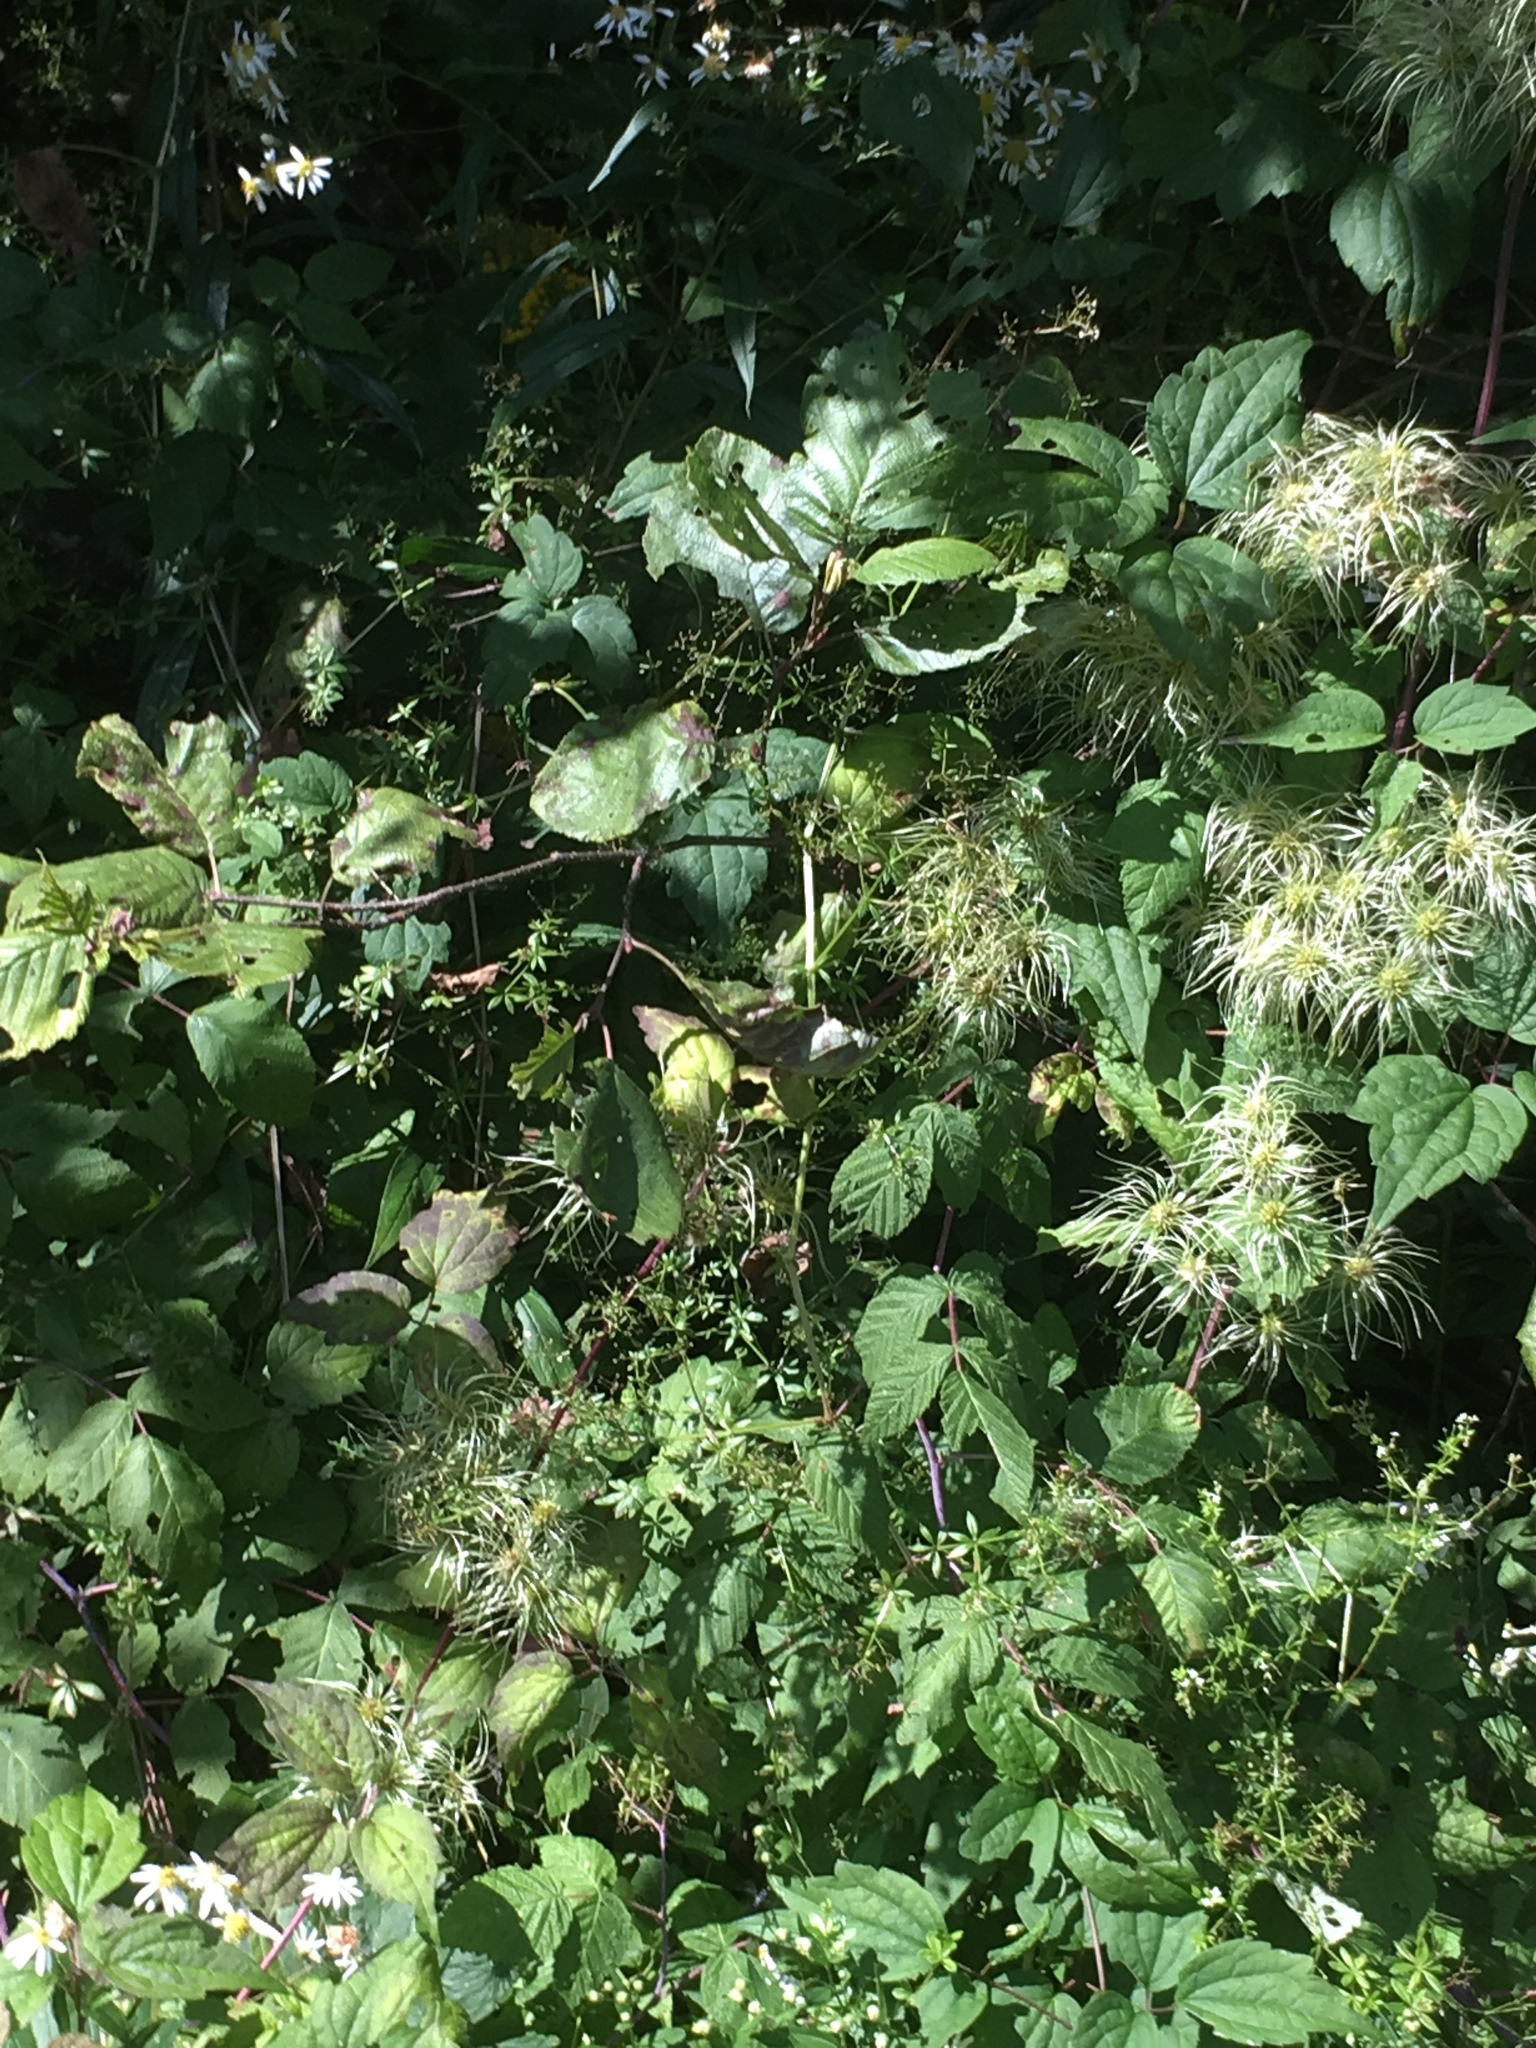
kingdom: Plantae
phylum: Tracheophyta
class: Magnoliopsida
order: Ranunculales
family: Ranunculaceae
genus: Clematis
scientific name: Clematis virginiana
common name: Virgin's-bower
